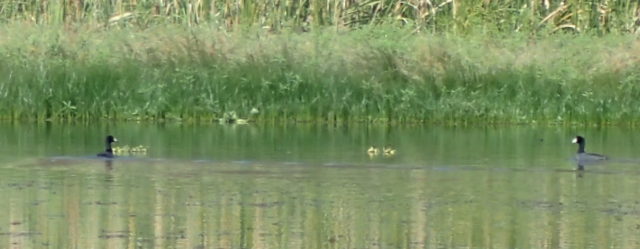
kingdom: Animalia
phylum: Chordata
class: Aves
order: Gruiformes
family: Rallidae
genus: Fulica
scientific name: Fulica americana
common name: American coot
